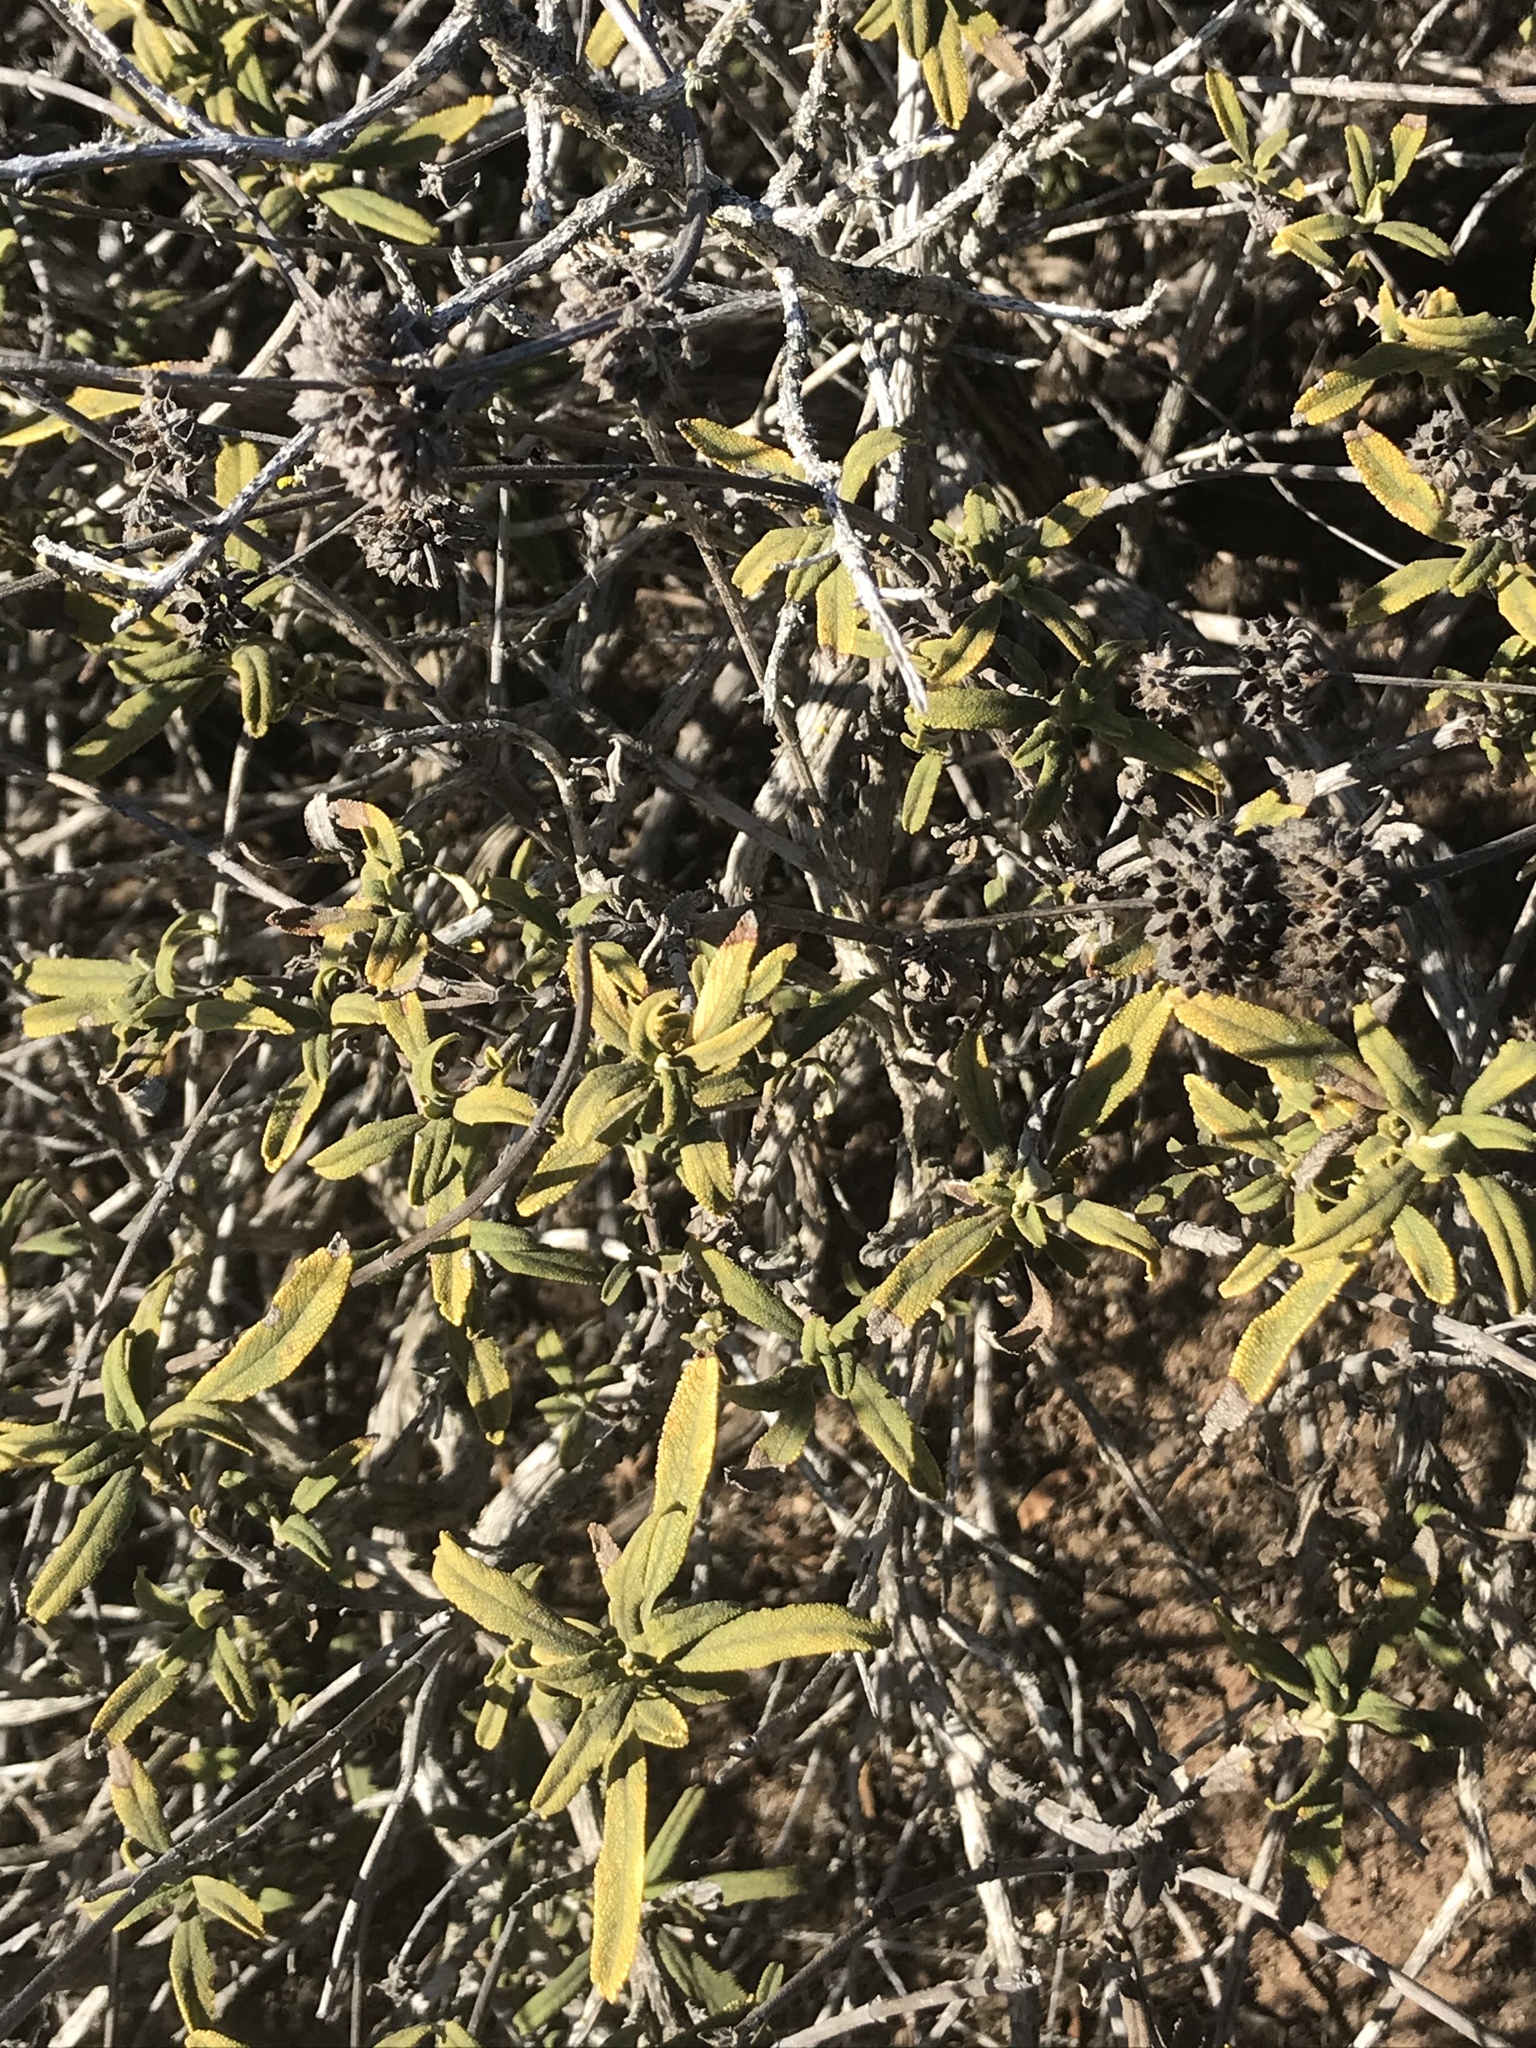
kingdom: Plantae
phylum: Tracheophyta
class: Magnoliopsida
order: Lamiales
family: Lamiaceae
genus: Salvia
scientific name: Salvia mellifera
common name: Black sage
